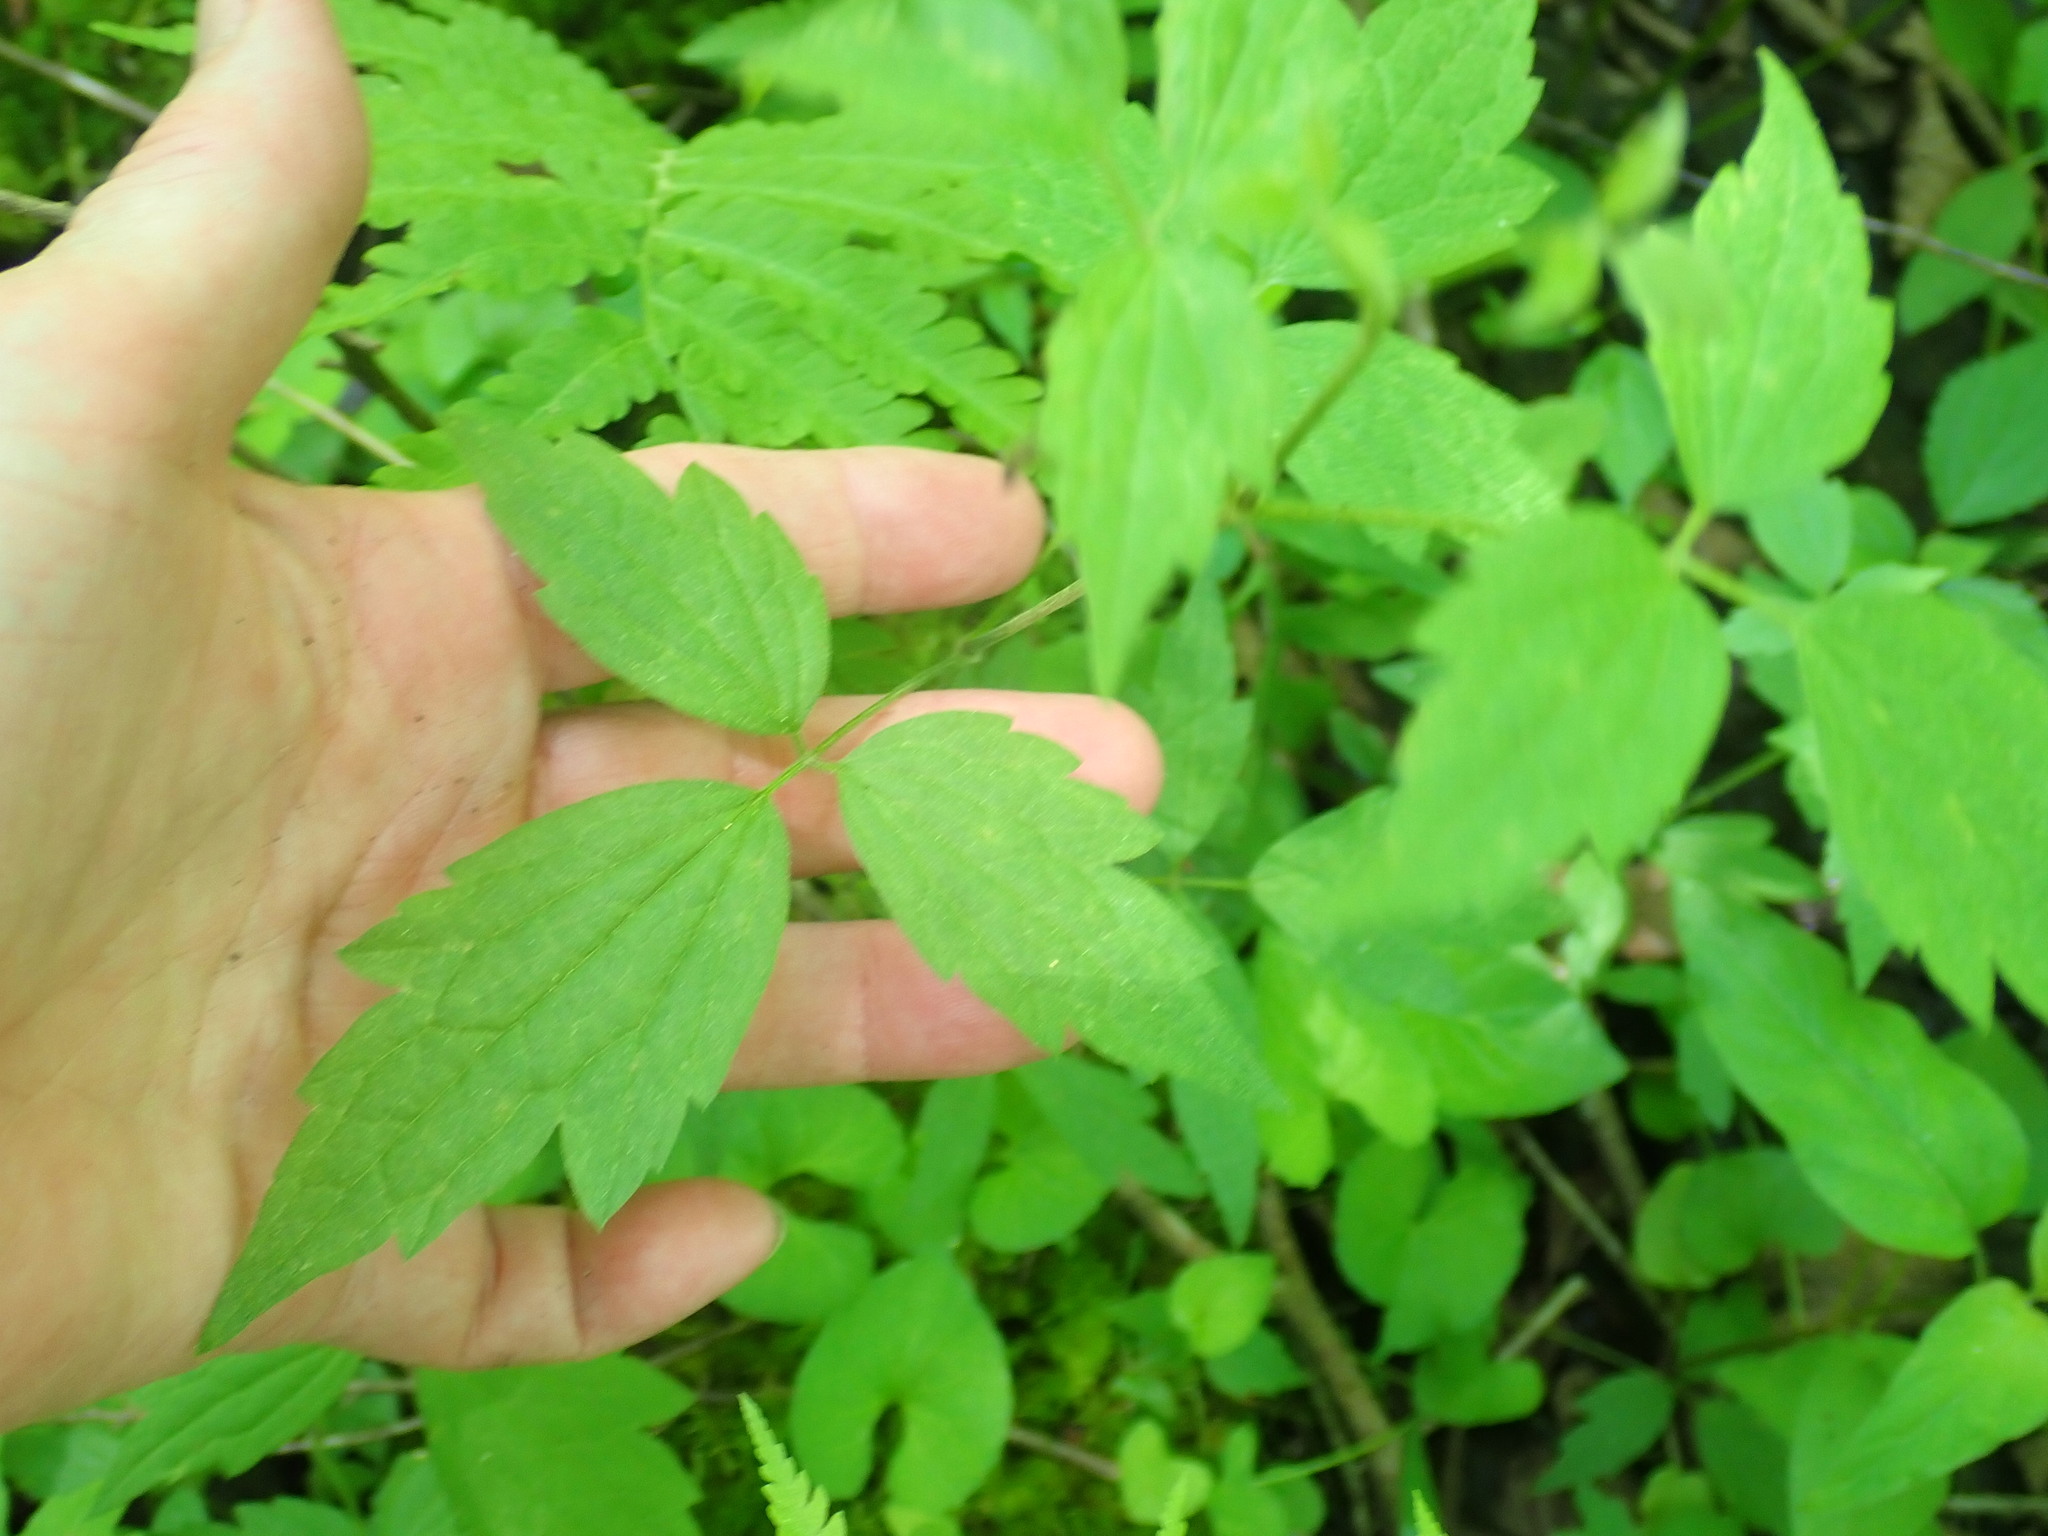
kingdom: Plantae
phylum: Tracheophyta
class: Magnoliopsida
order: Ranunculales
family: Ranunculaceae
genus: Clematis
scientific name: Clematis virginiana
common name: Virgin's-bower
